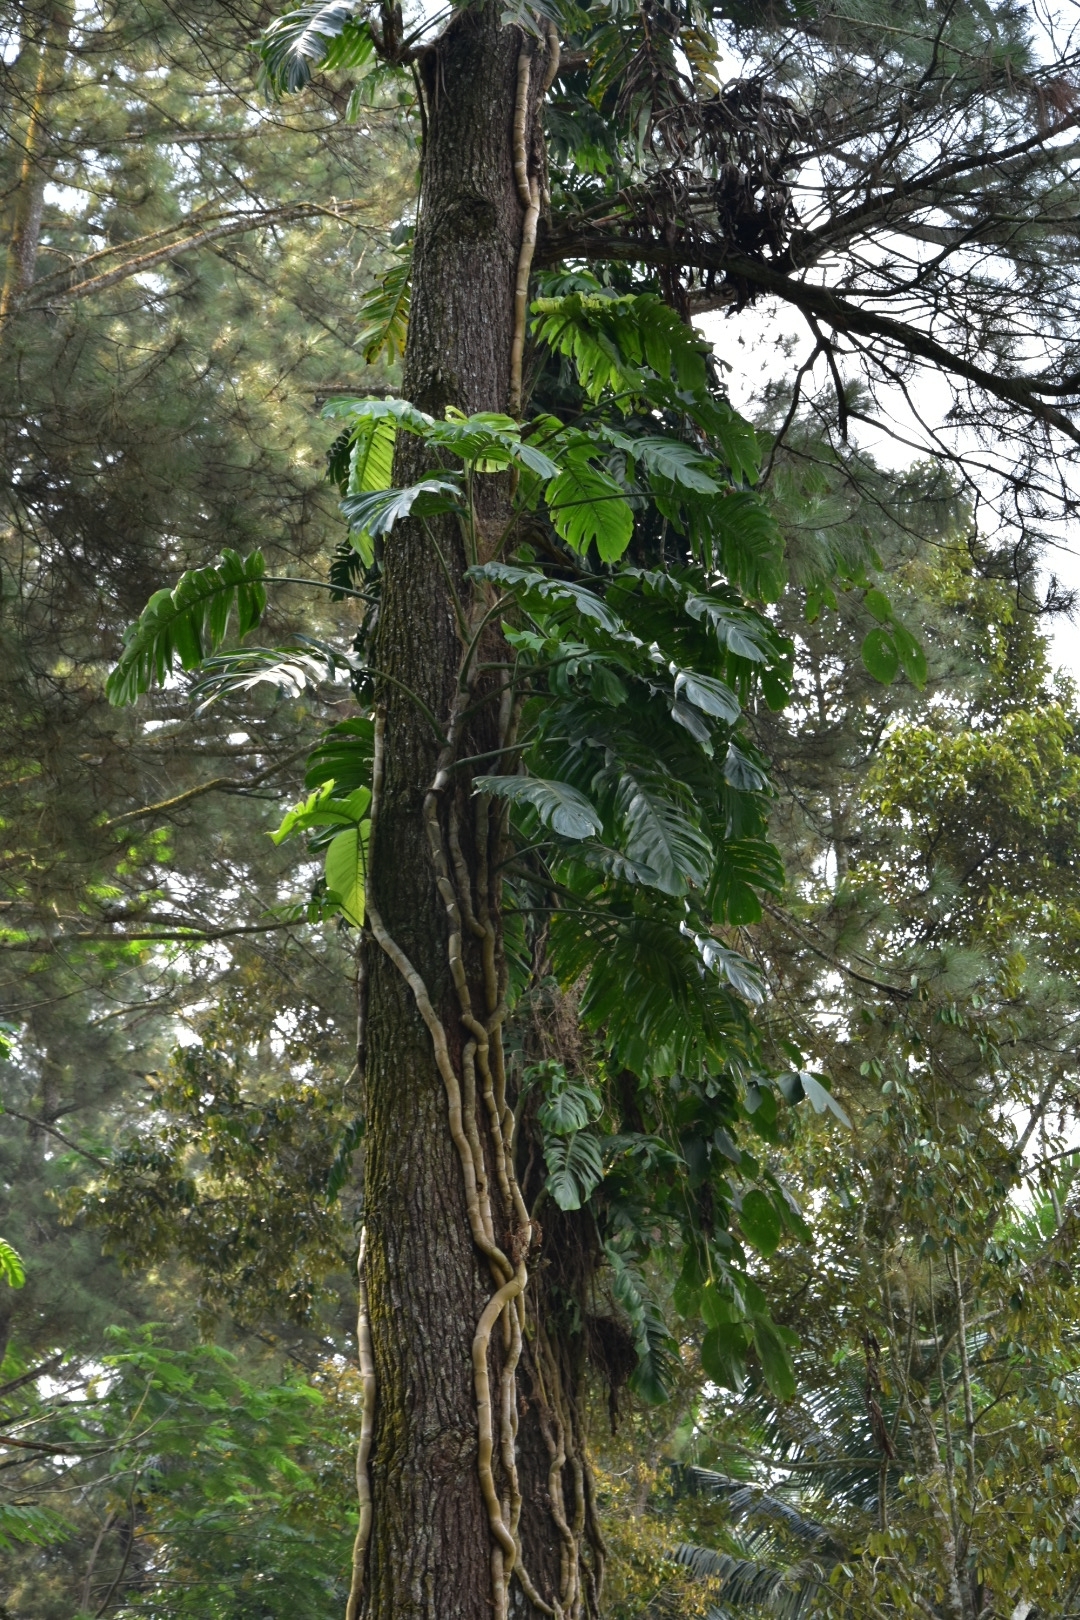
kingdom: Plantae
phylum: Tracheophyta
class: Liliopsida
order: Alismatales
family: Araceae
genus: Epipremnum
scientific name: Epipremnum pinnatum
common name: Centipede tongavine
